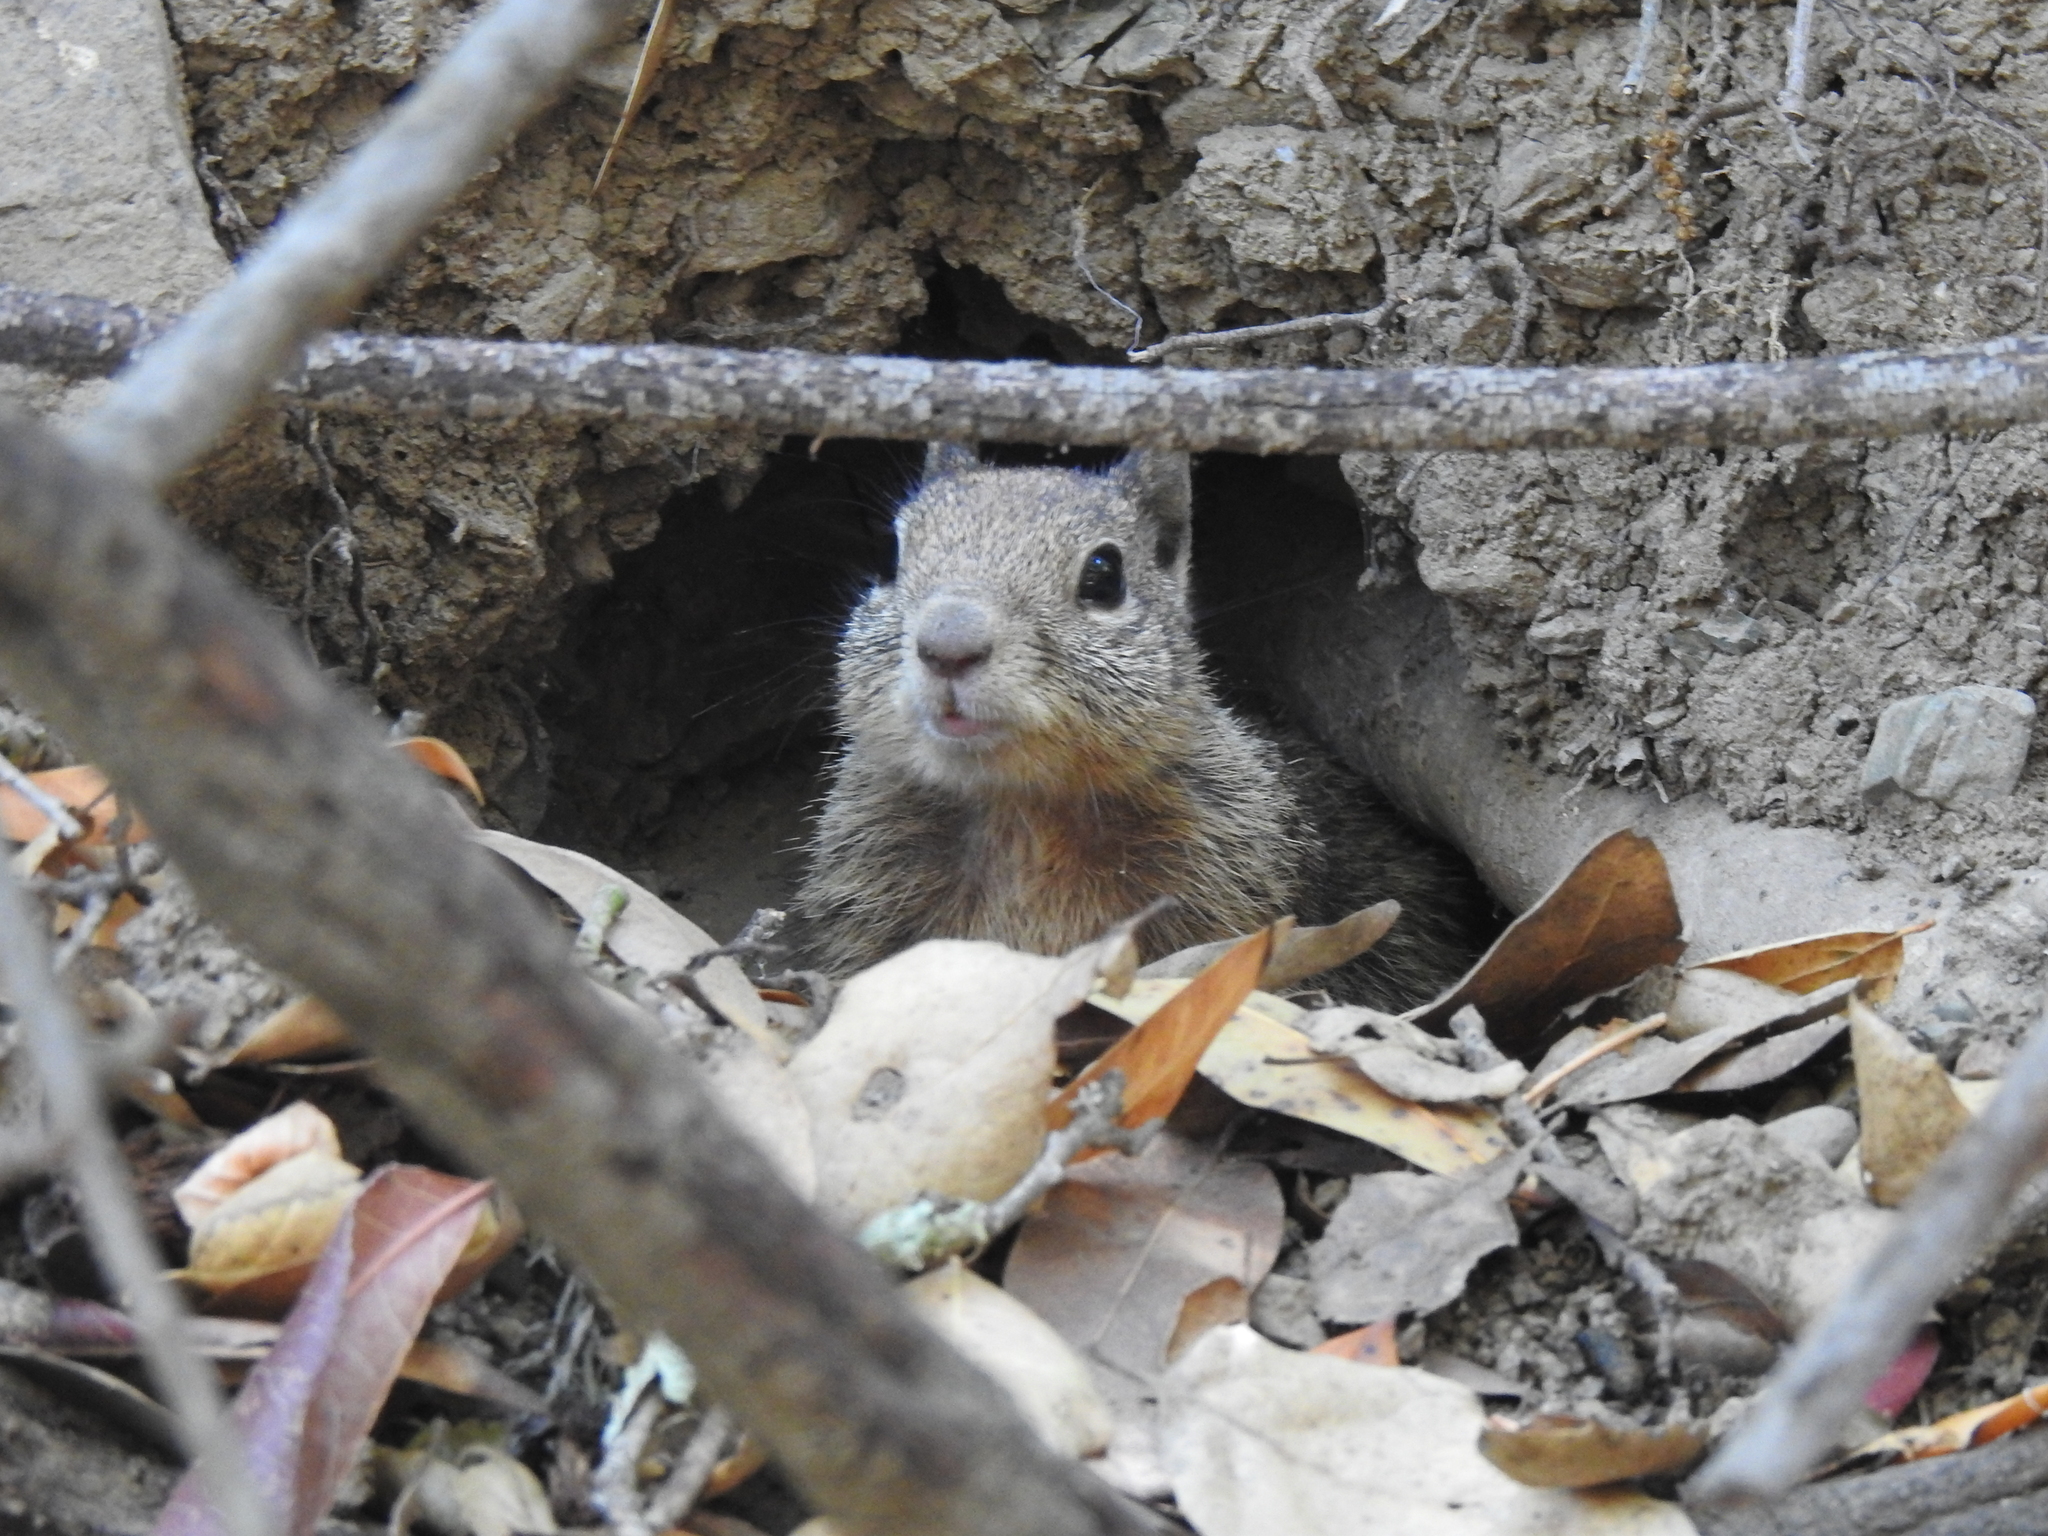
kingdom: Animalia
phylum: Chordata
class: Mammalia
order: Rodentia
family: Sciuridae
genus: Otospermophilus
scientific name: Otospermophilus beecheyi
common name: California ground squirrel
